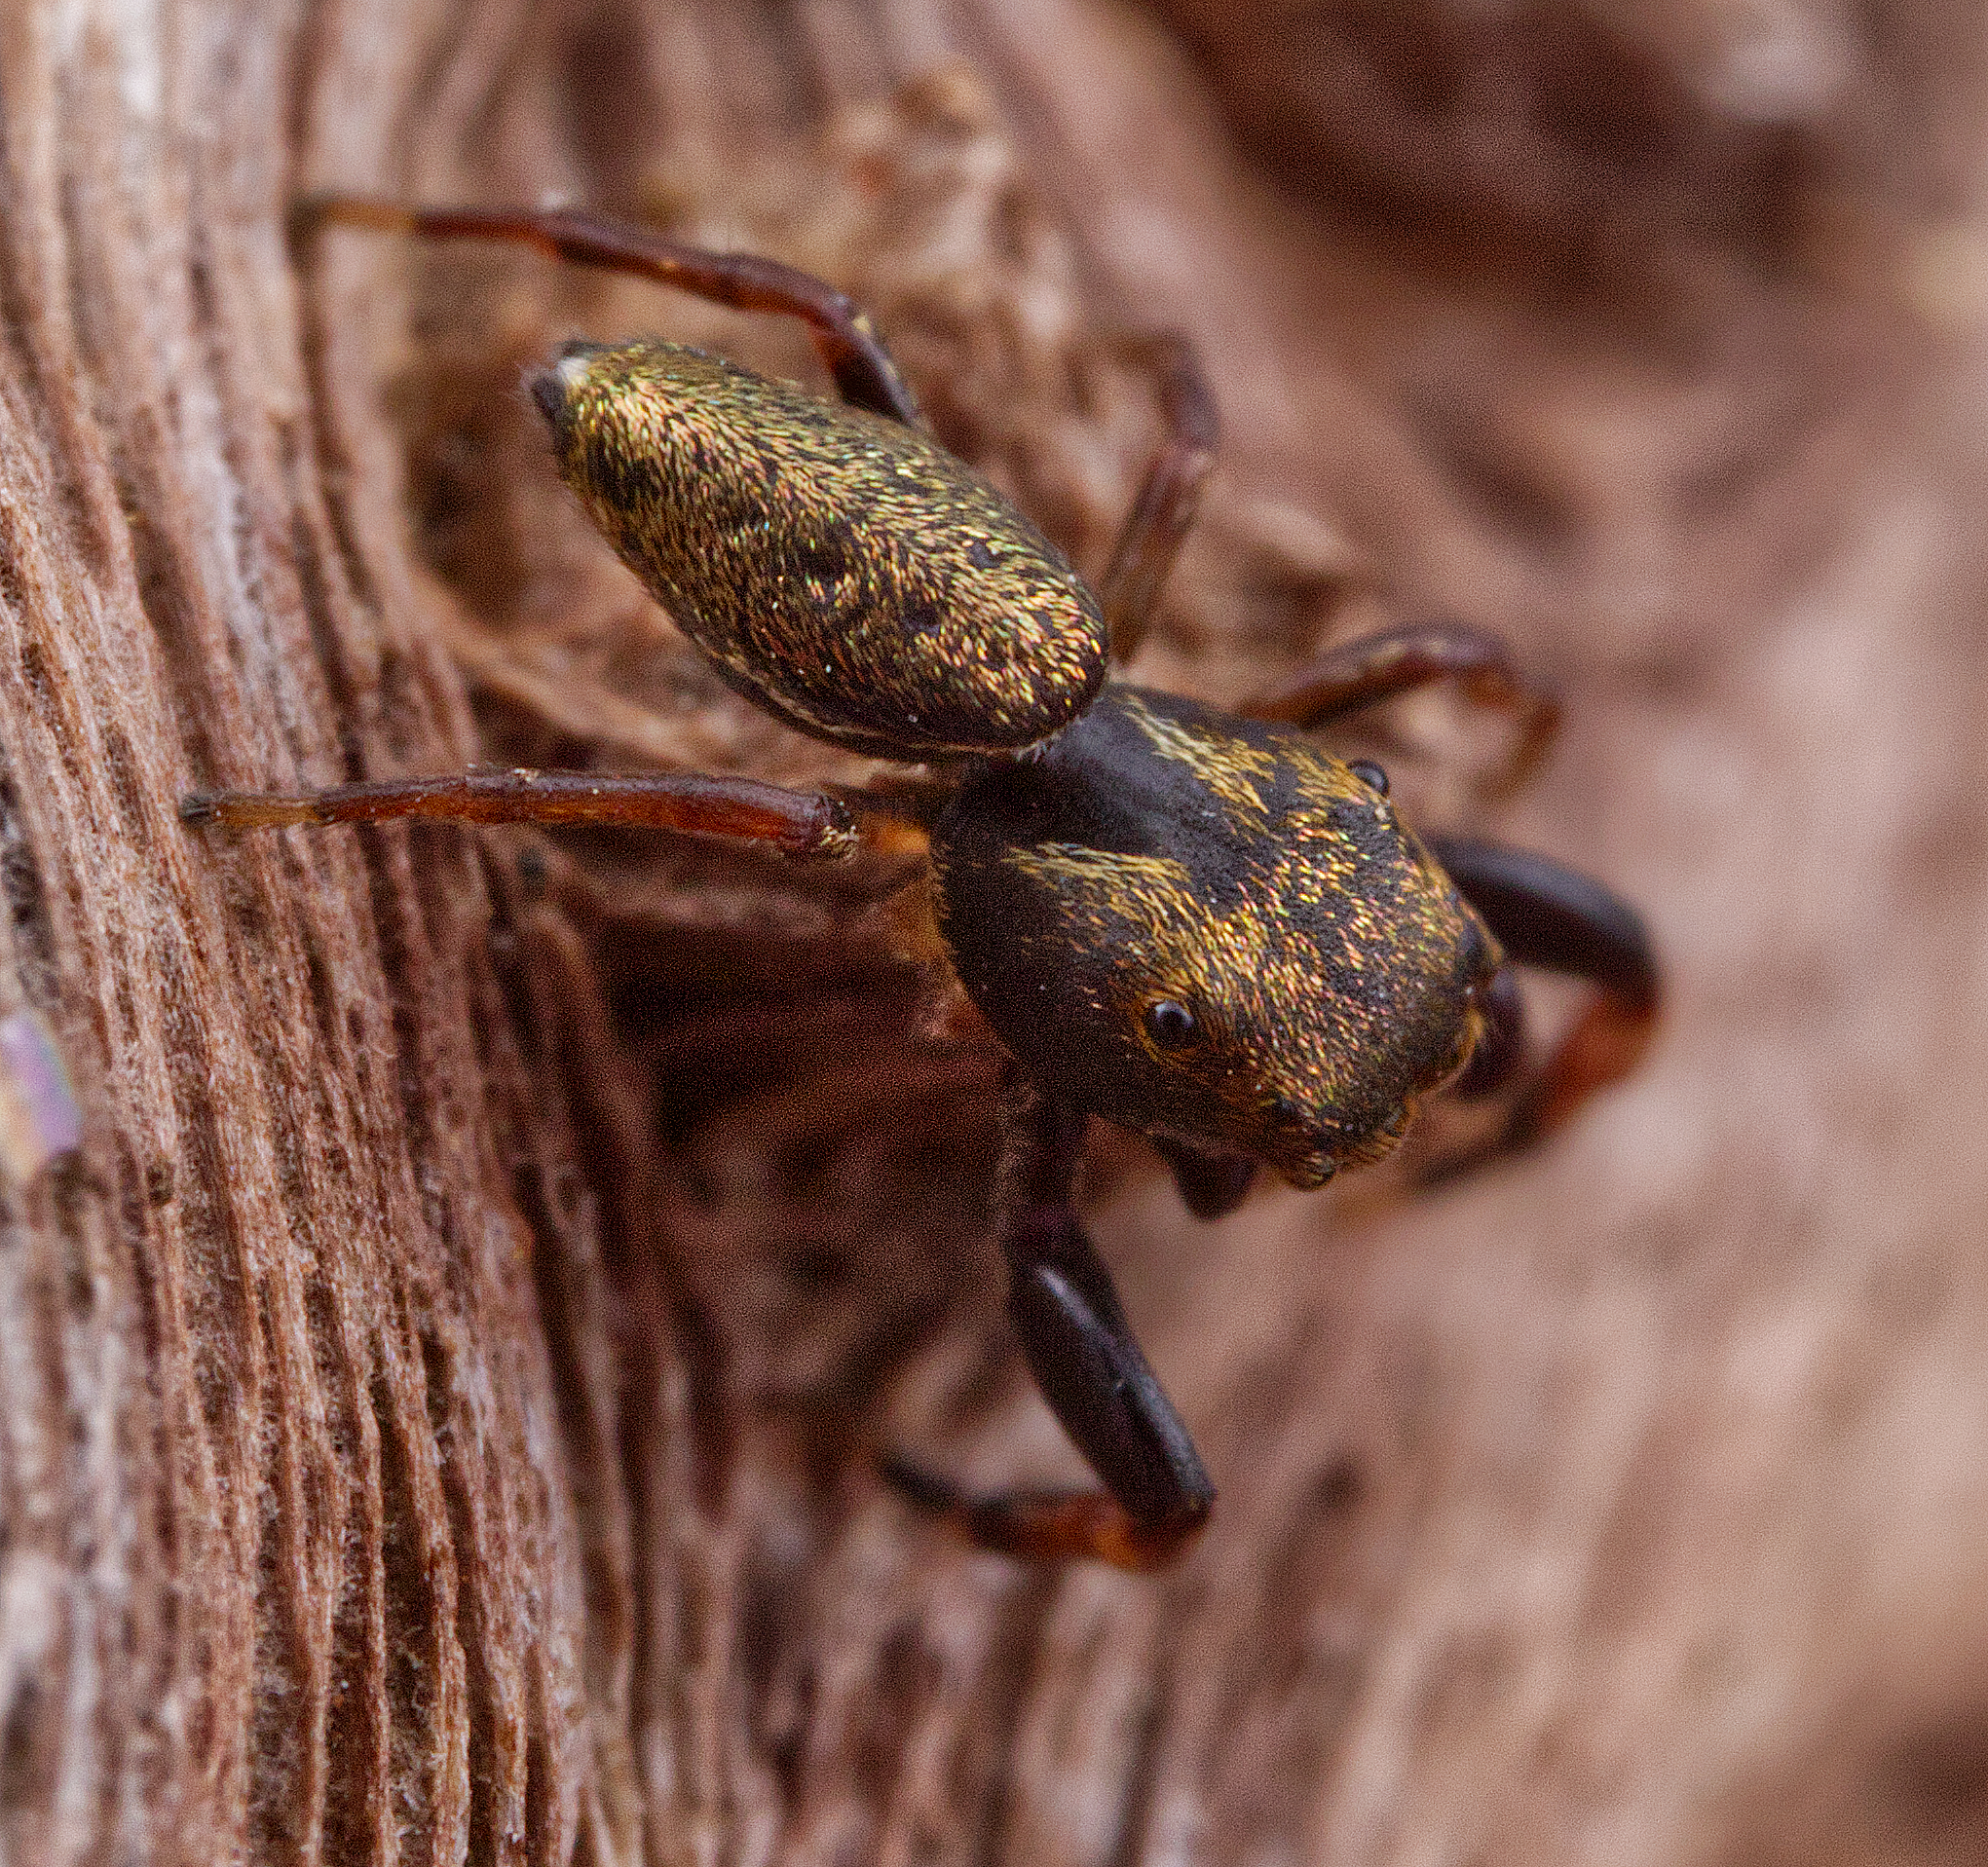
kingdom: Animalia
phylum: Arthropoda
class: Arachnida
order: Araneae
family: Salticidae
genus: Zygoballus
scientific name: Zygoballus nervosus
